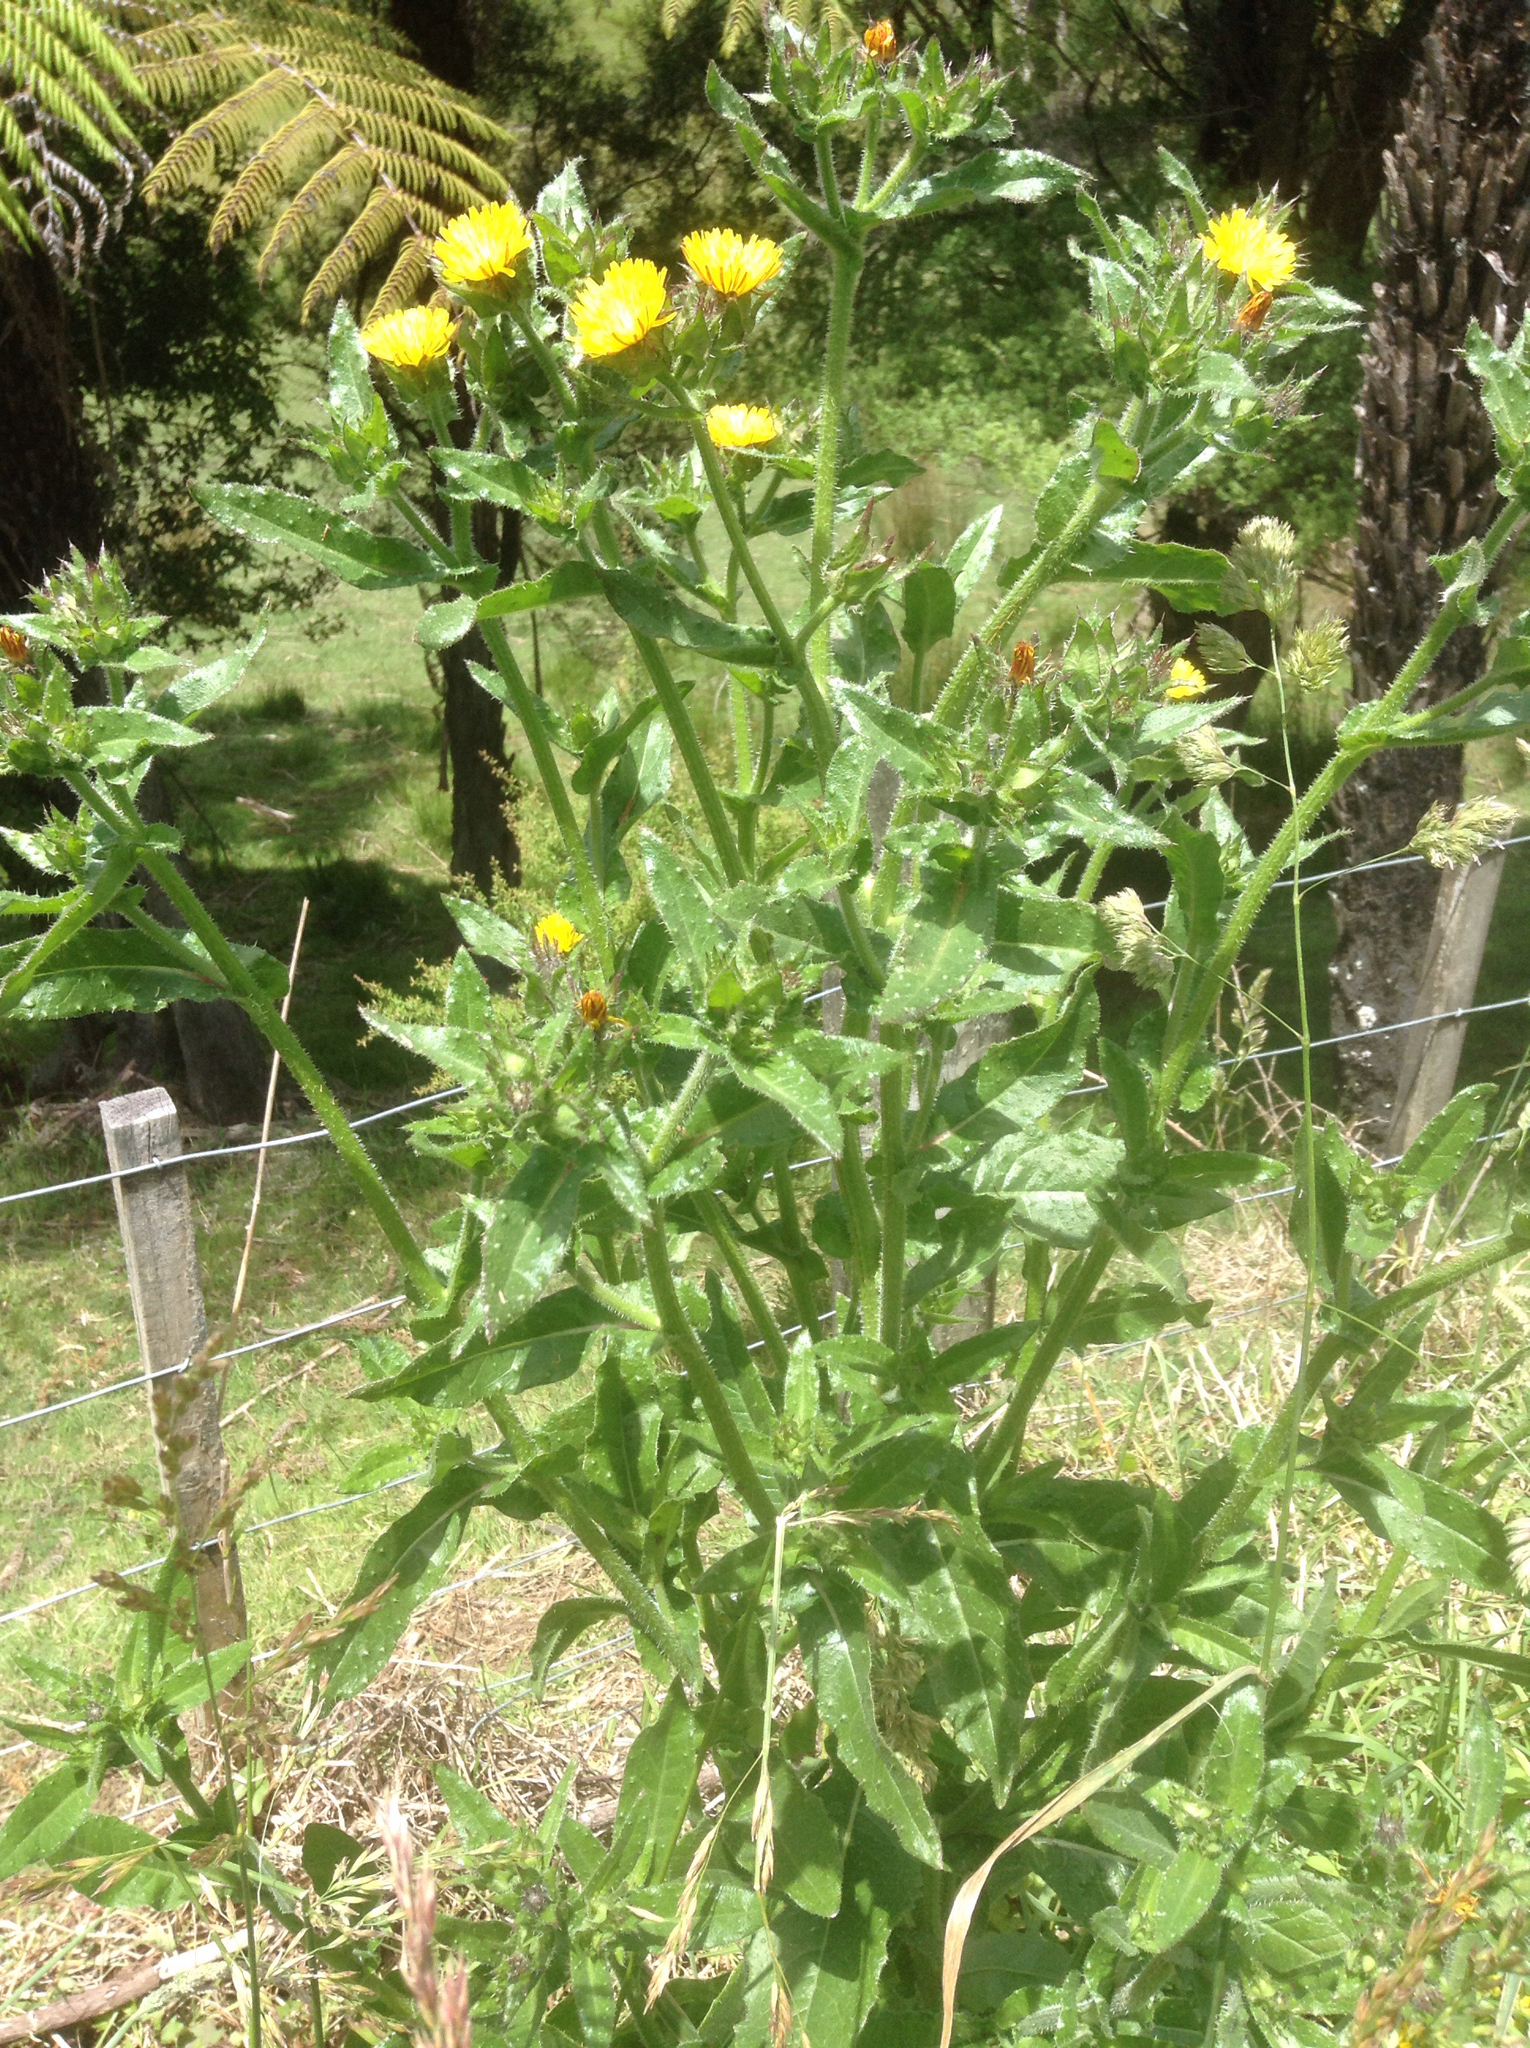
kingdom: Plantae
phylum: Tracheophyta
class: Magnoliopsida
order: Asterales
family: Asteraceae
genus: Helminthotheca
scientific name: Helminthotheca echioides
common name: Ox-tongue
